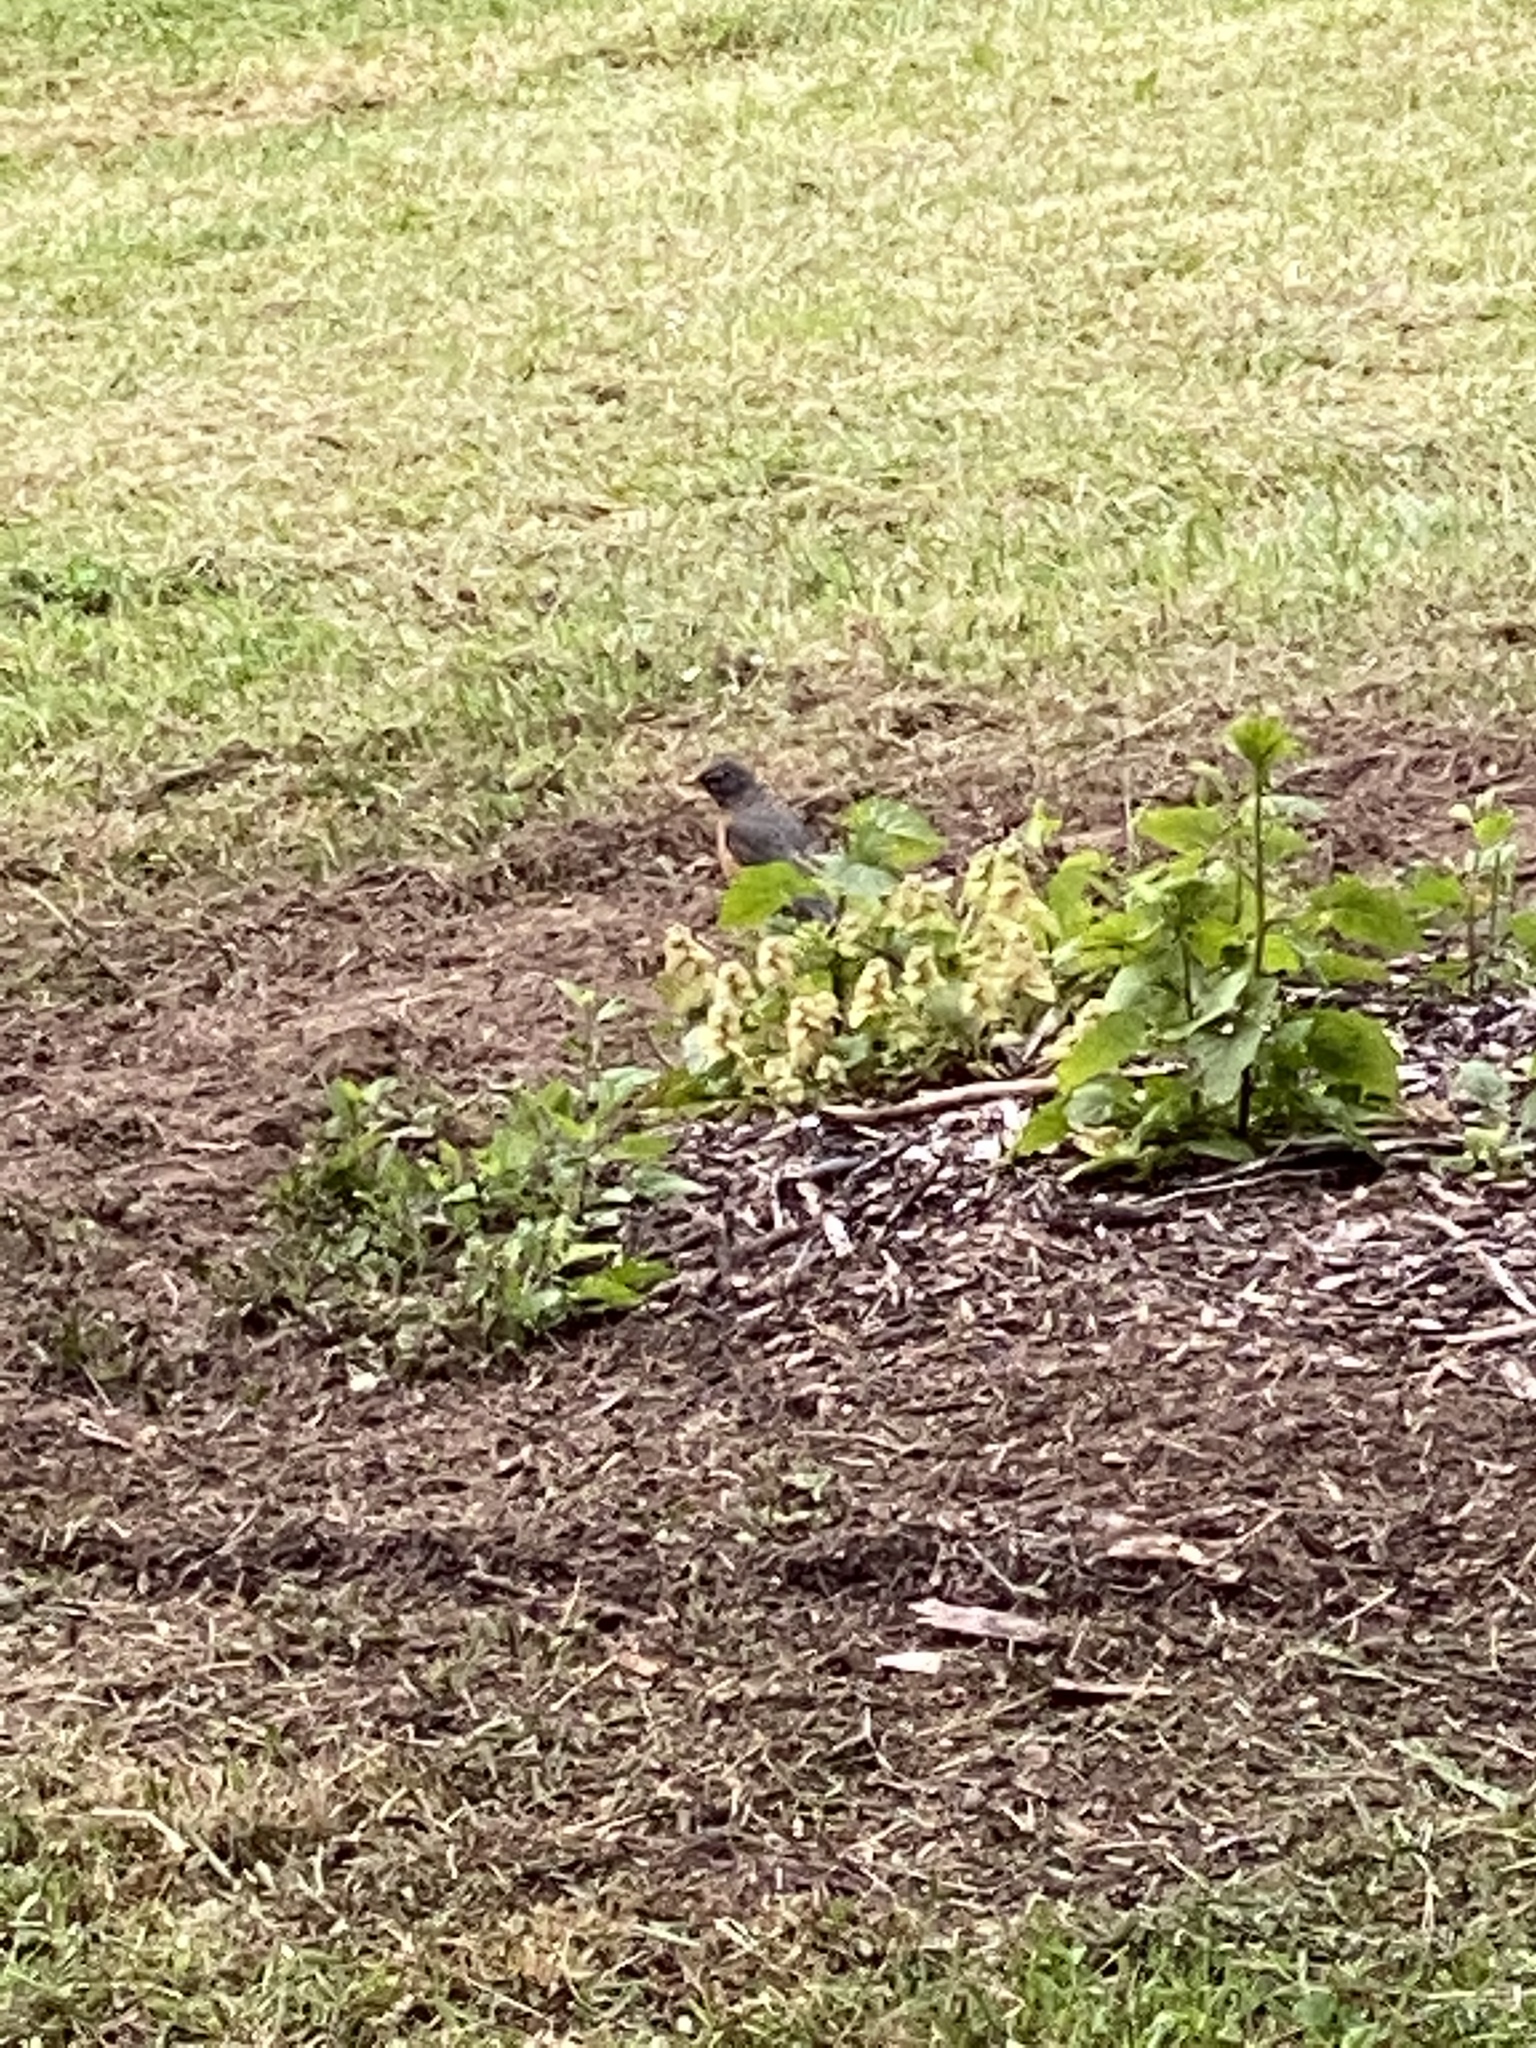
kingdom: Animalia
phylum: Chordata
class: Aves
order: Passeriformes
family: Turdidae
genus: Turdus
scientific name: Turdus migratorius
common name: American robin
